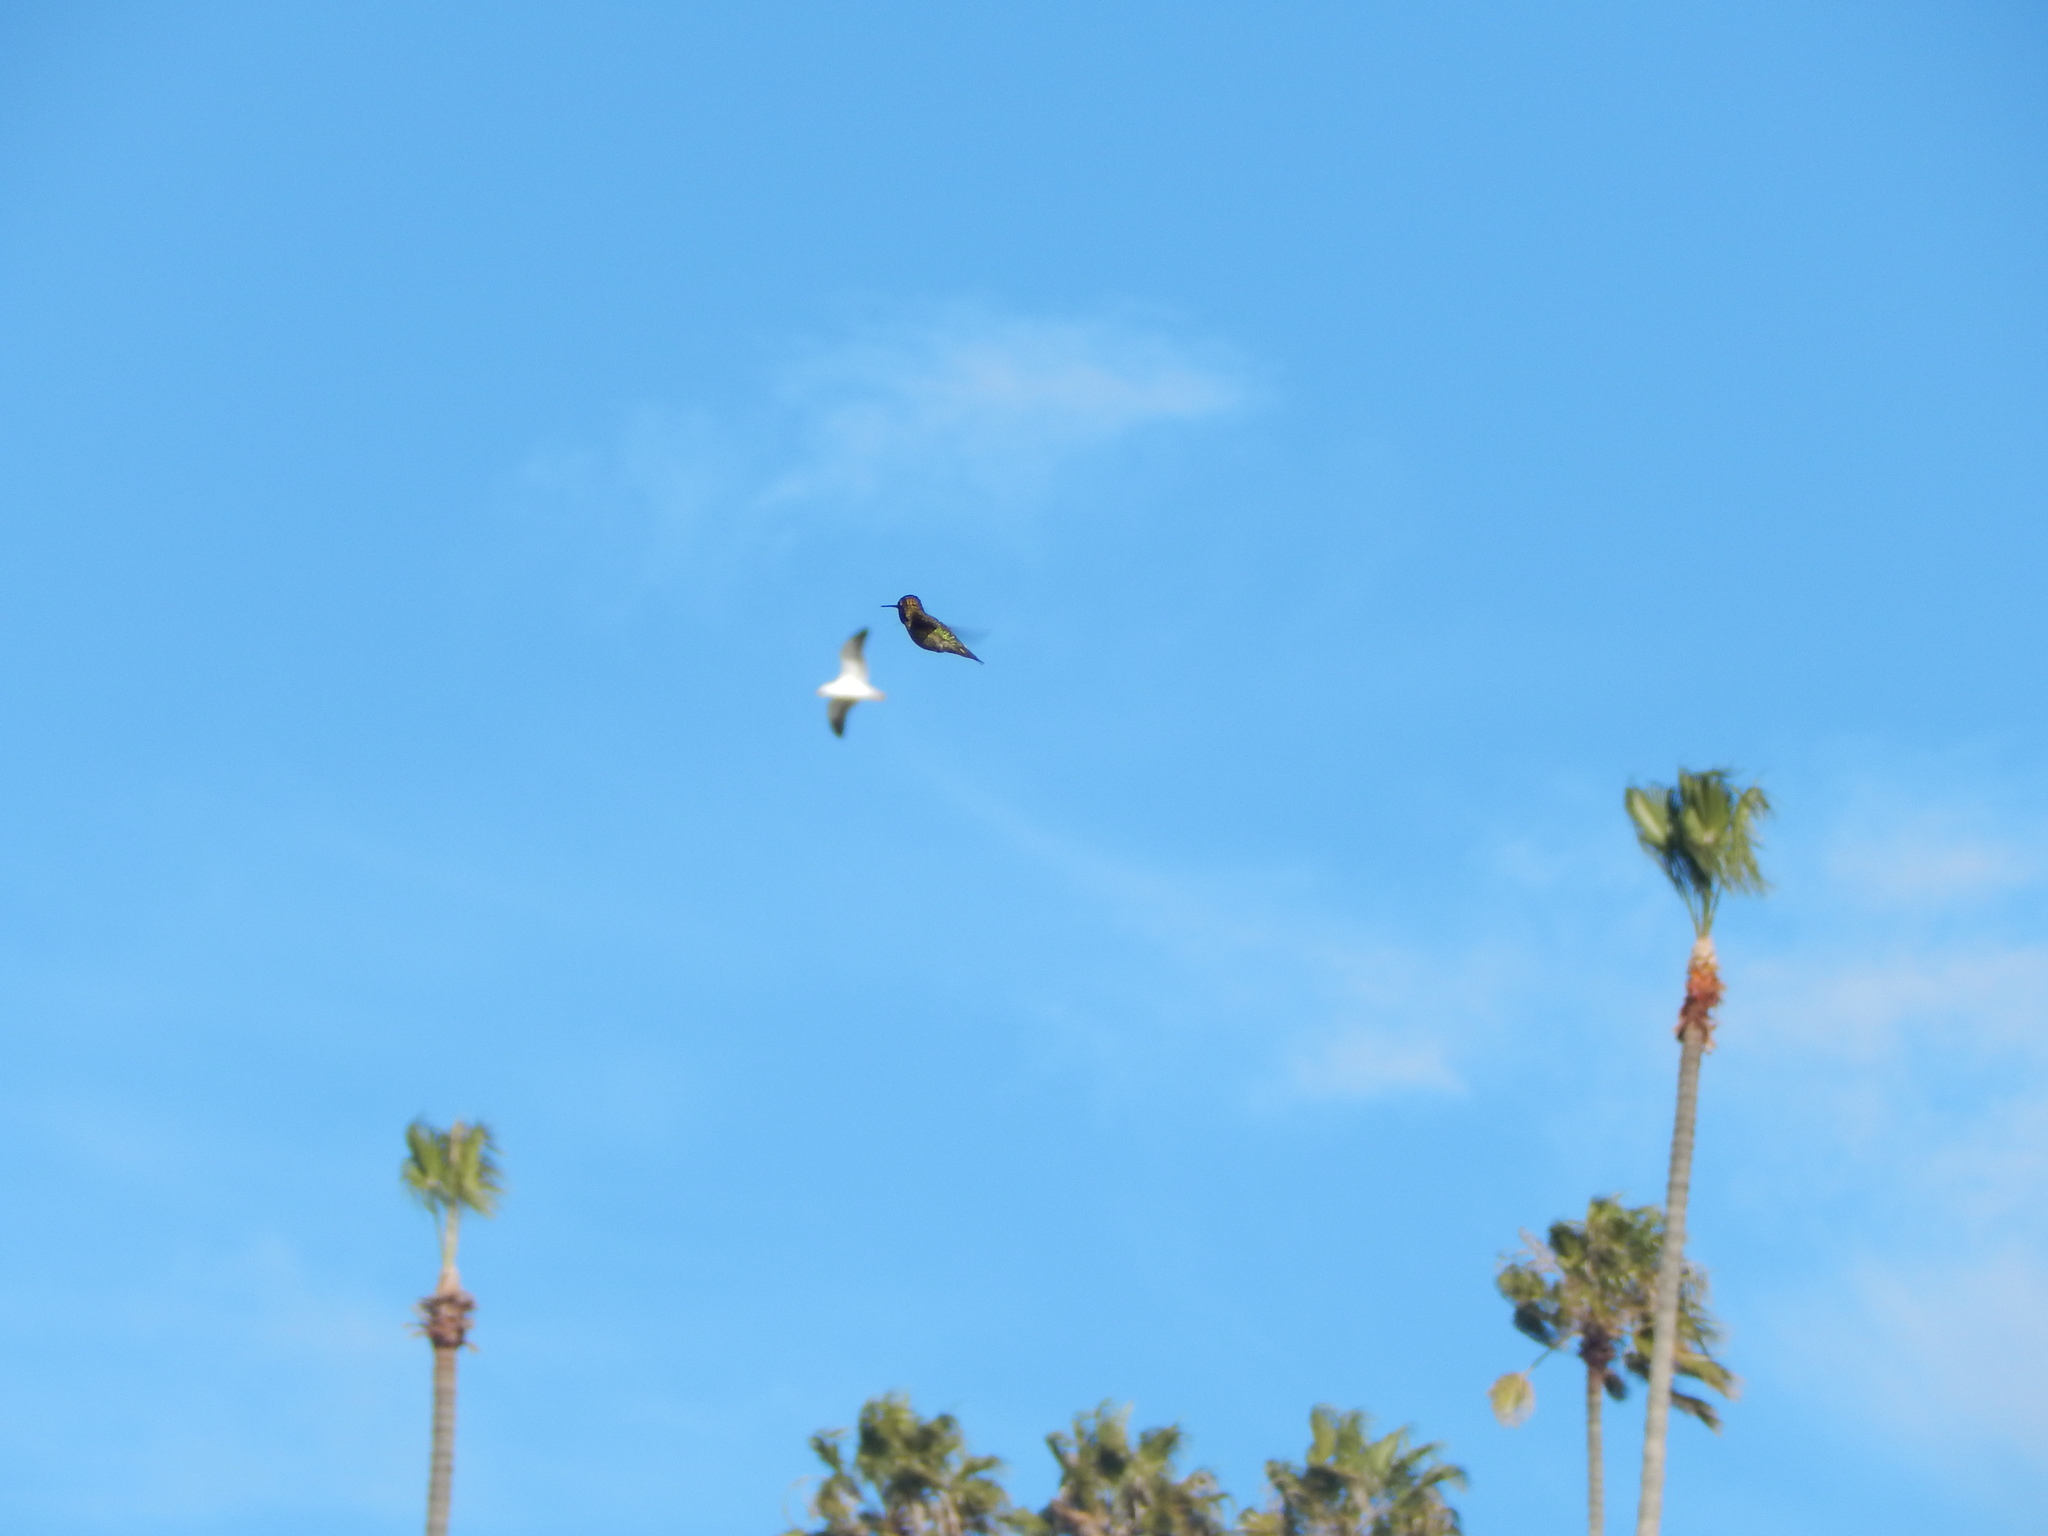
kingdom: Animalia
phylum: Chordata
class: Aves
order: Apodiformes
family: Trochilidae
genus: Calypte
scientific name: Calypte anna
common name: Anna's hummingbird
